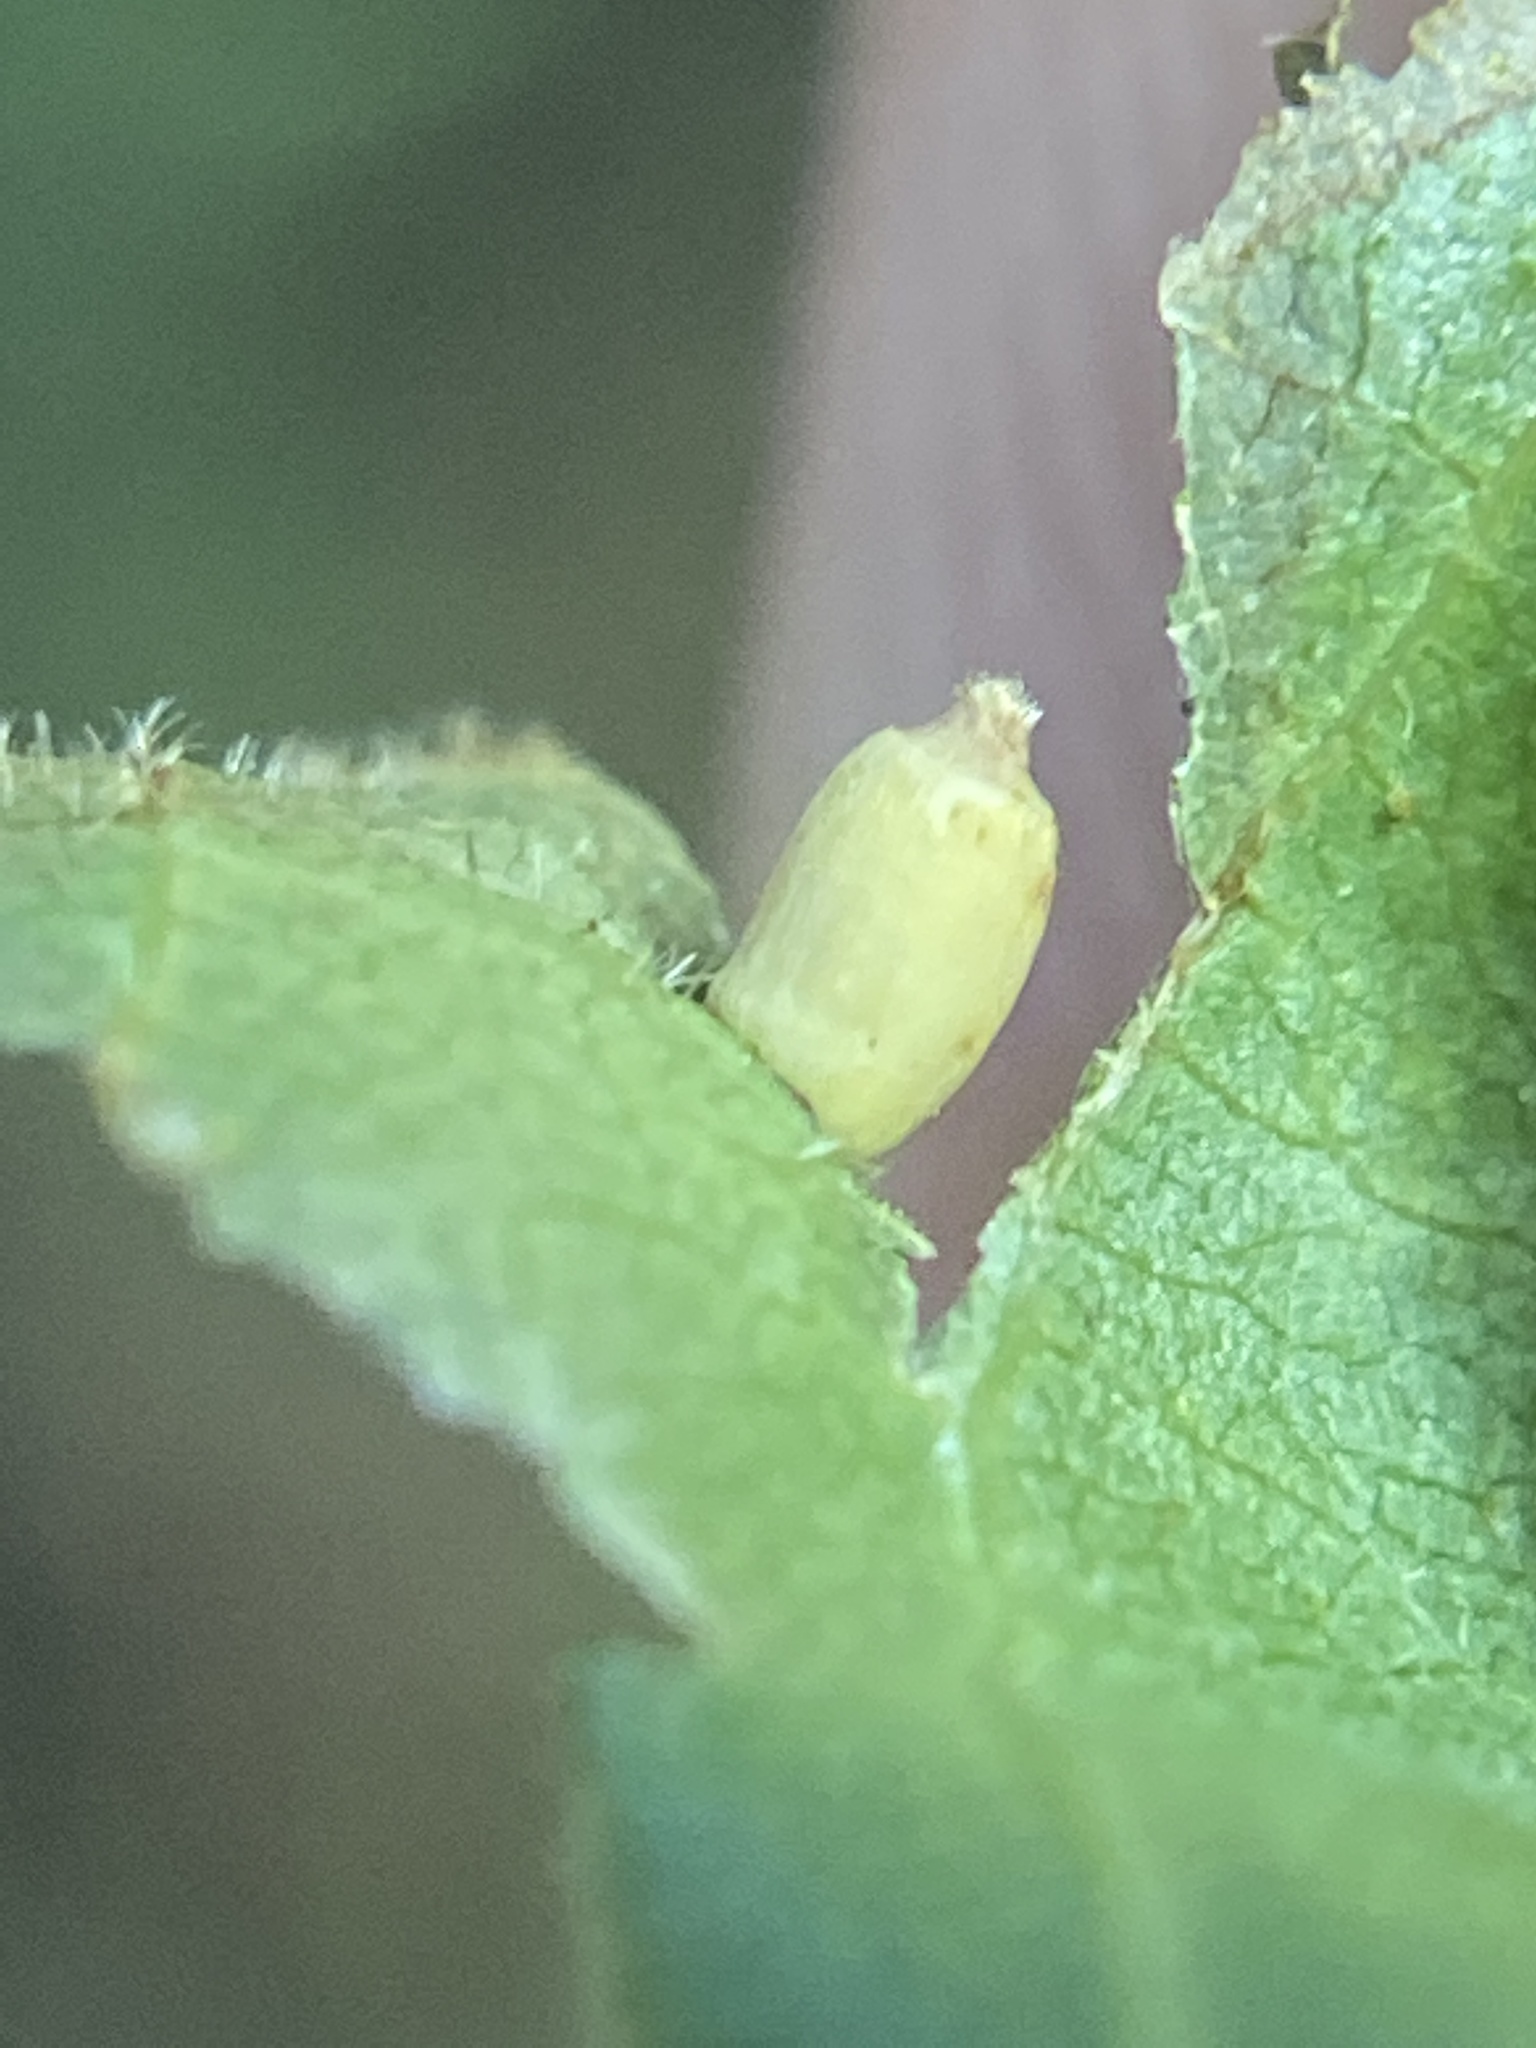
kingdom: Animalia
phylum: Arthropoda
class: Insecta
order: Diptera
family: Cecidomyiidae
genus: Caryomyia
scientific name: Caryomyia urnula
